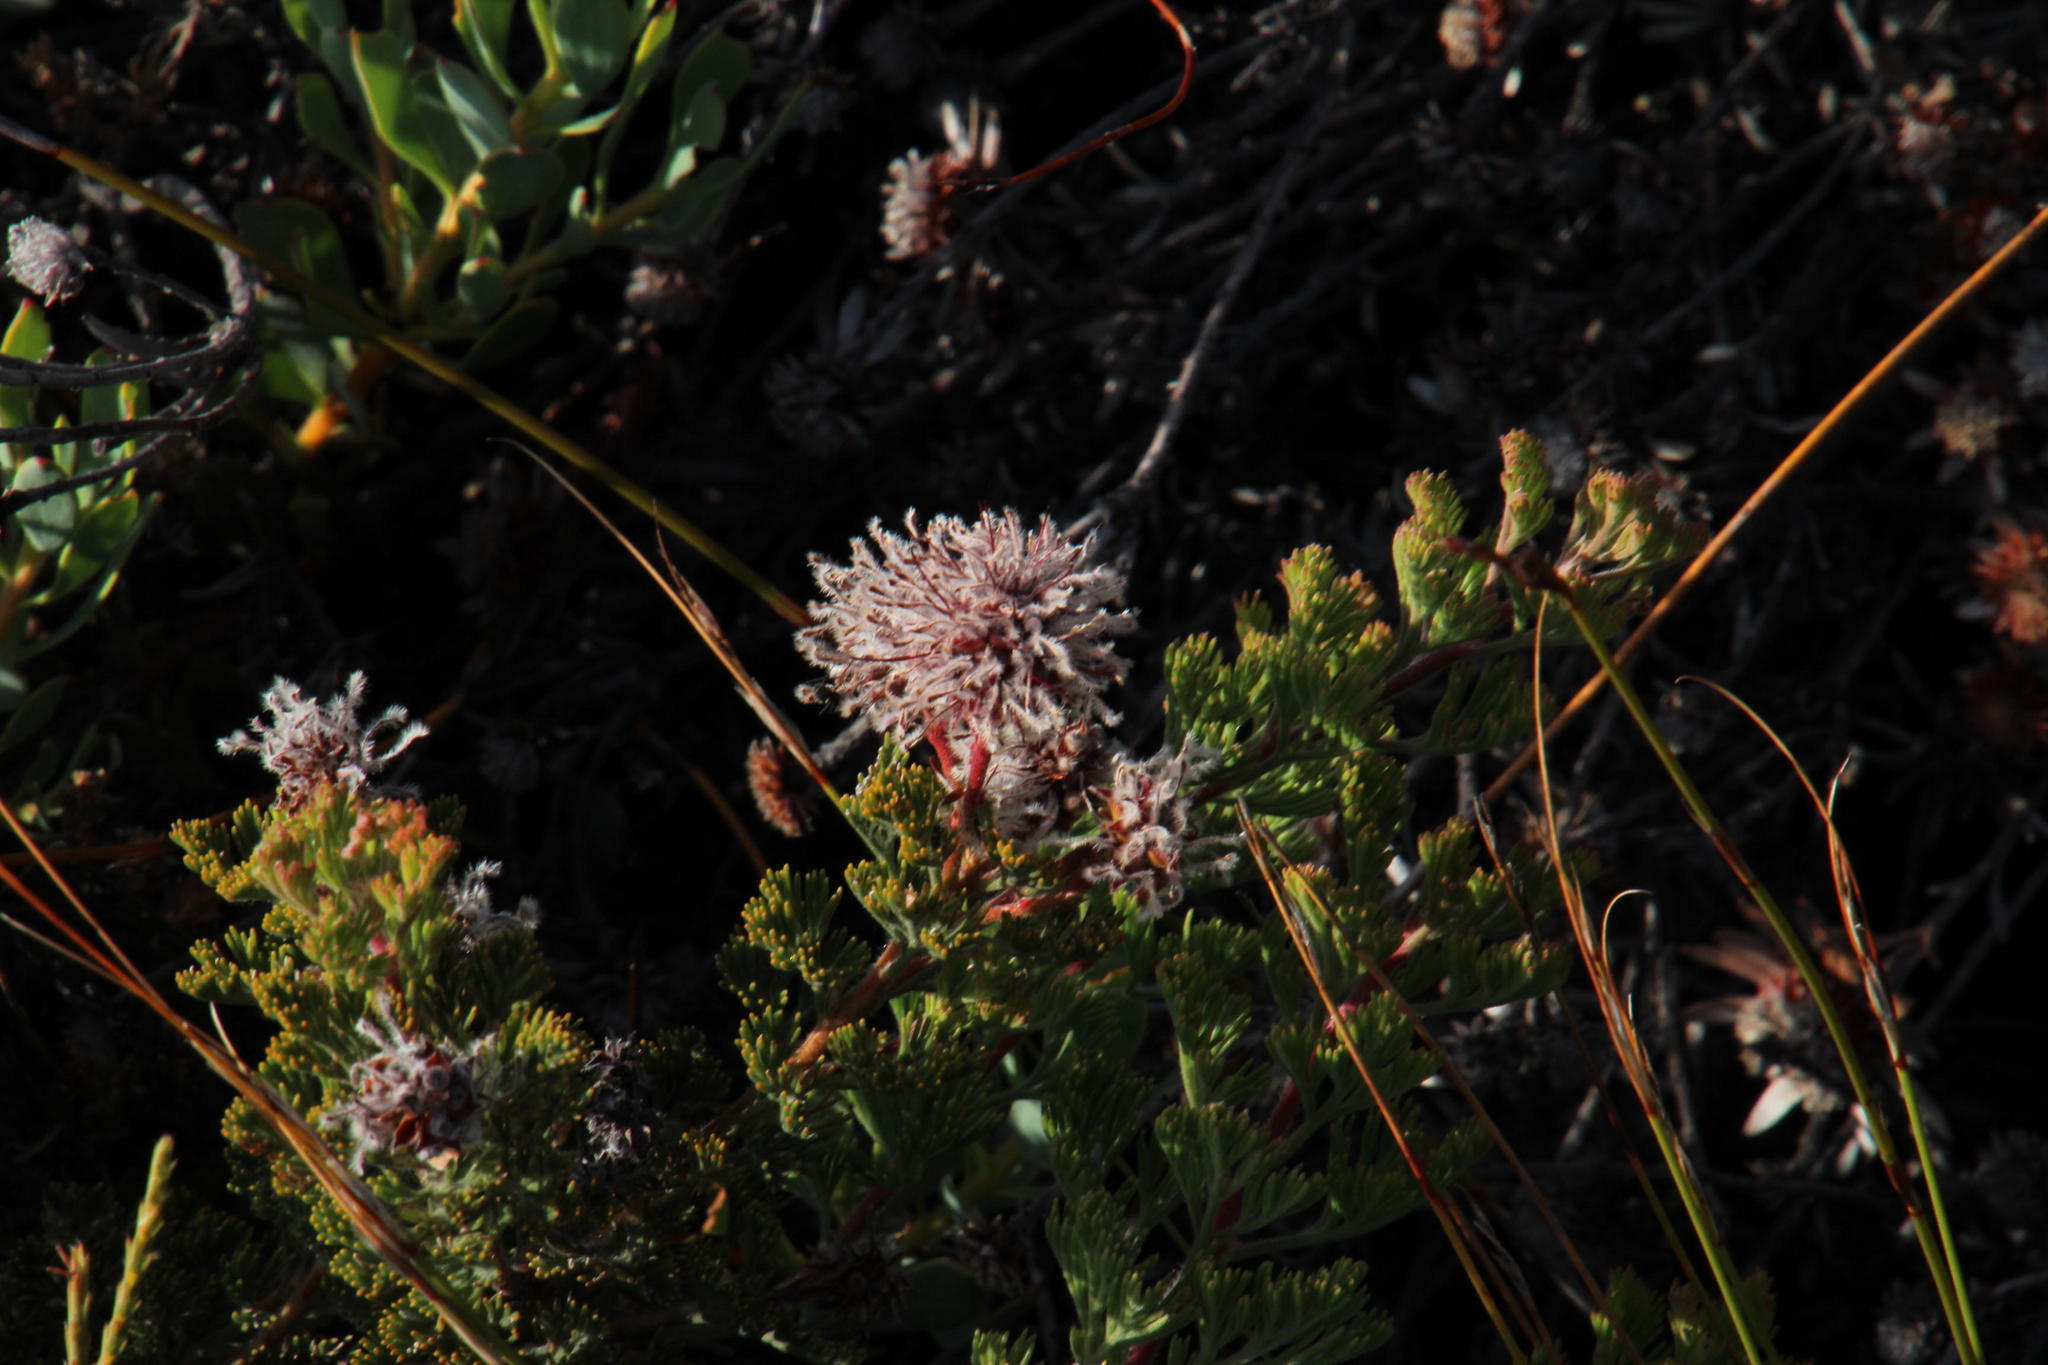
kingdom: Plantae
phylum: Tracheophyta
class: Magnoliopsida
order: Proteales
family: Proteaceae
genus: Serruria
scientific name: Serruria aitonii
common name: Marshmallow spiderhead
